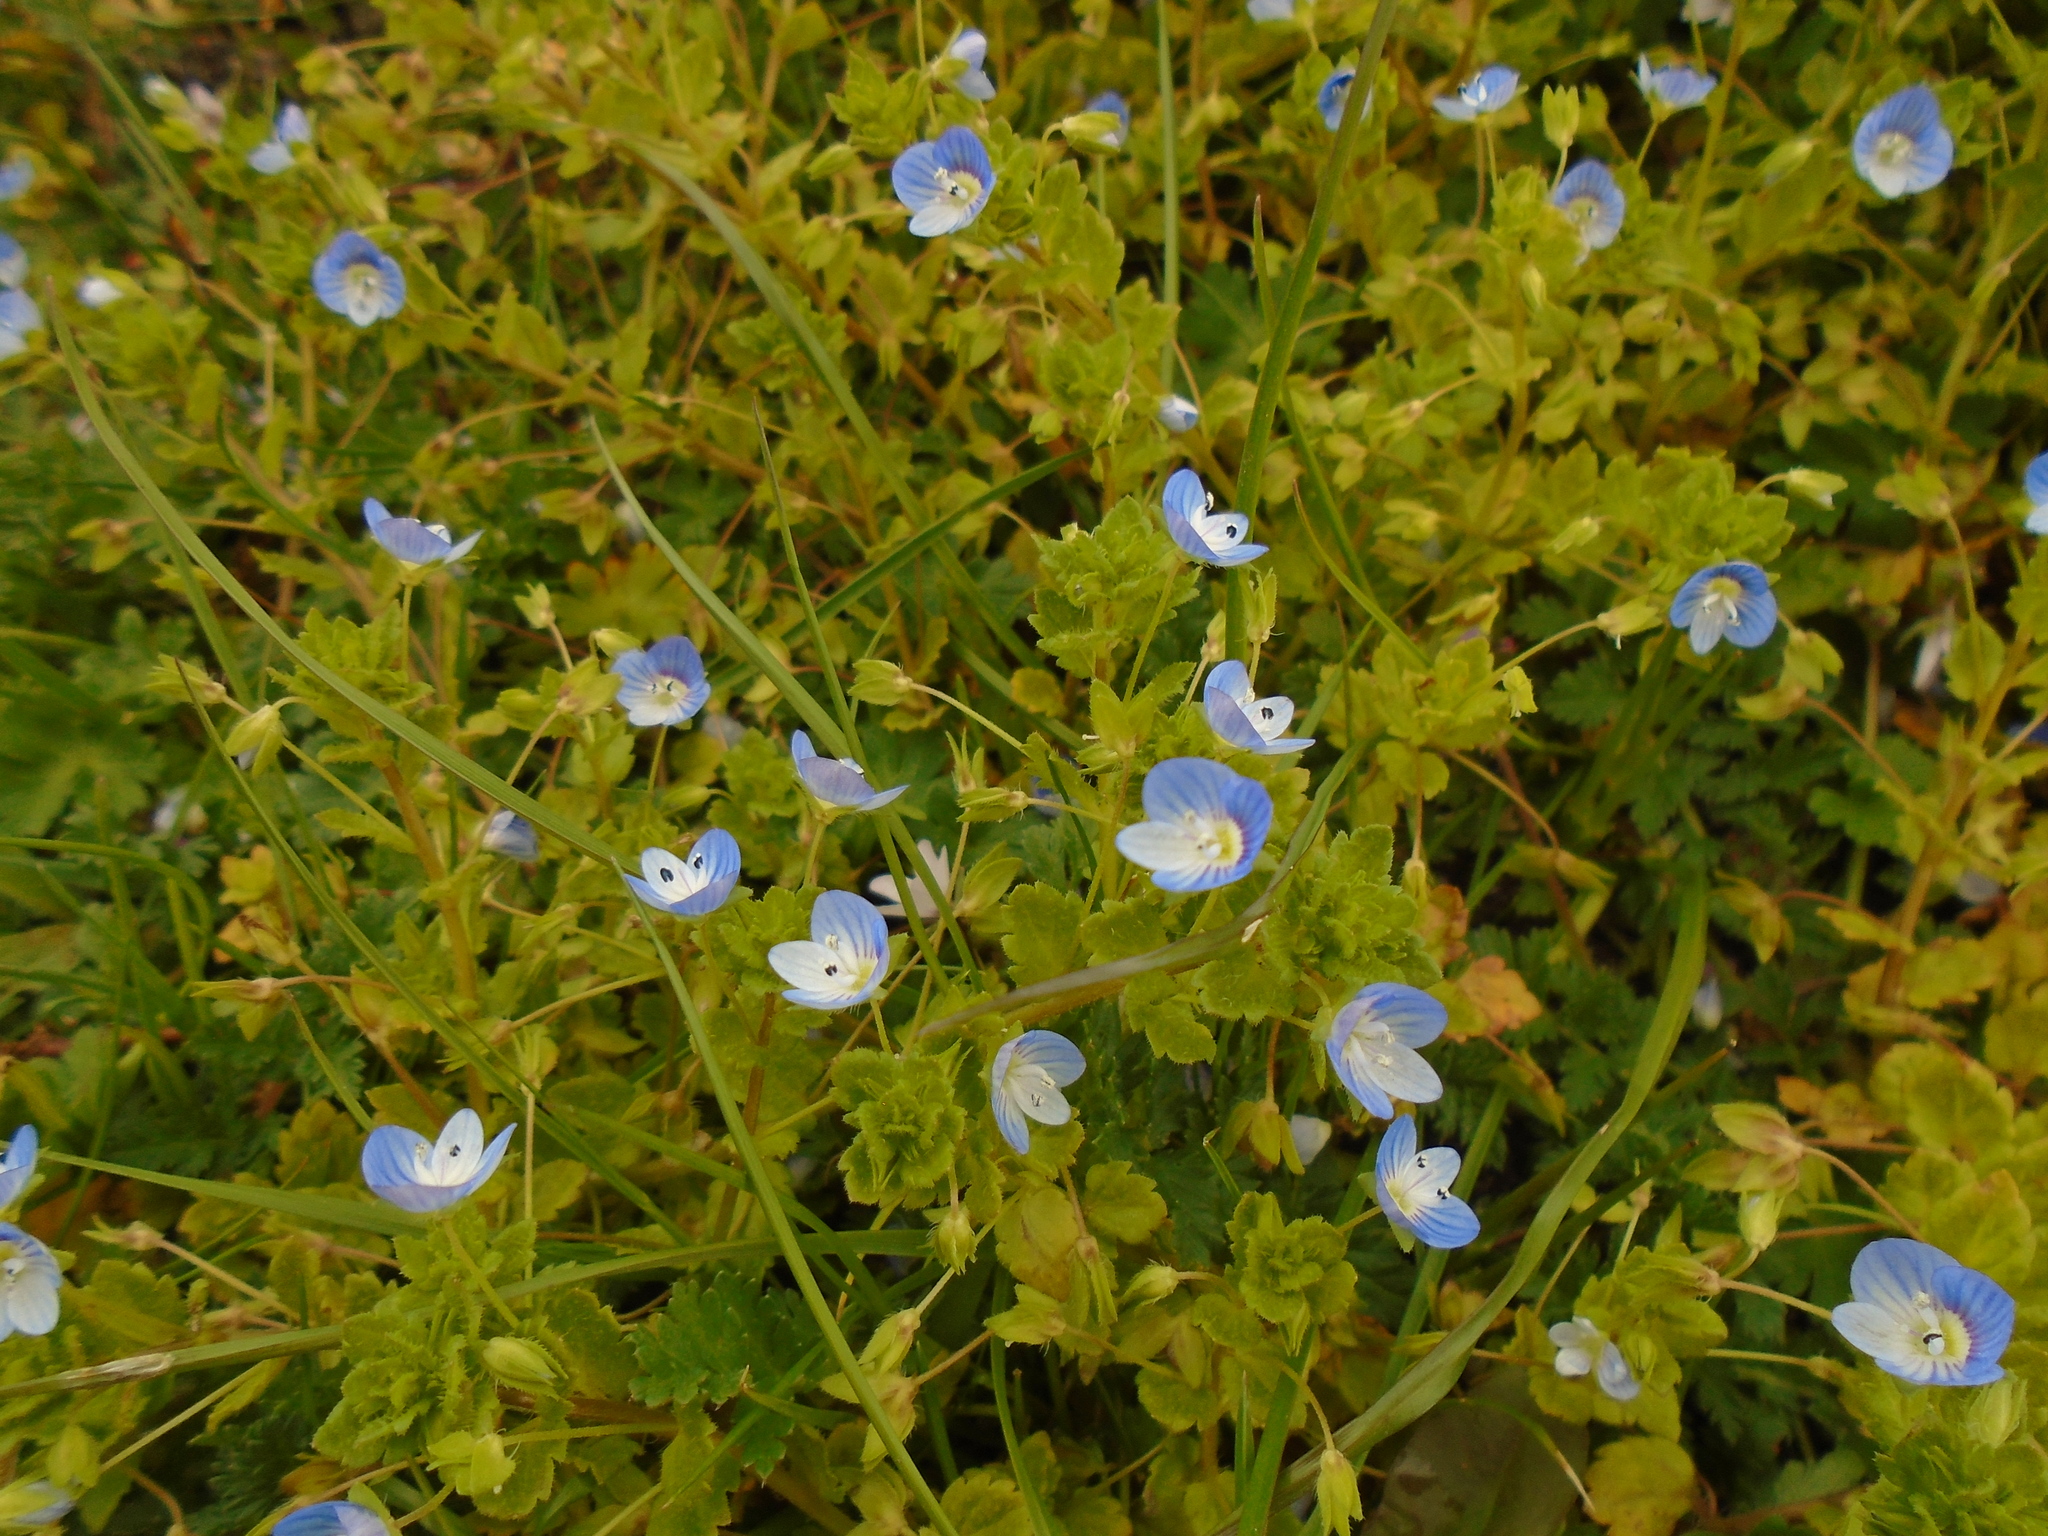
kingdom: Plantae
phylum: Tracheophyta
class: Magnoliopsida
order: Lamiales
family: Plantaginaceae
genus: Veronica
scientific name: Veronica persica
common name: Common field-speedwell
